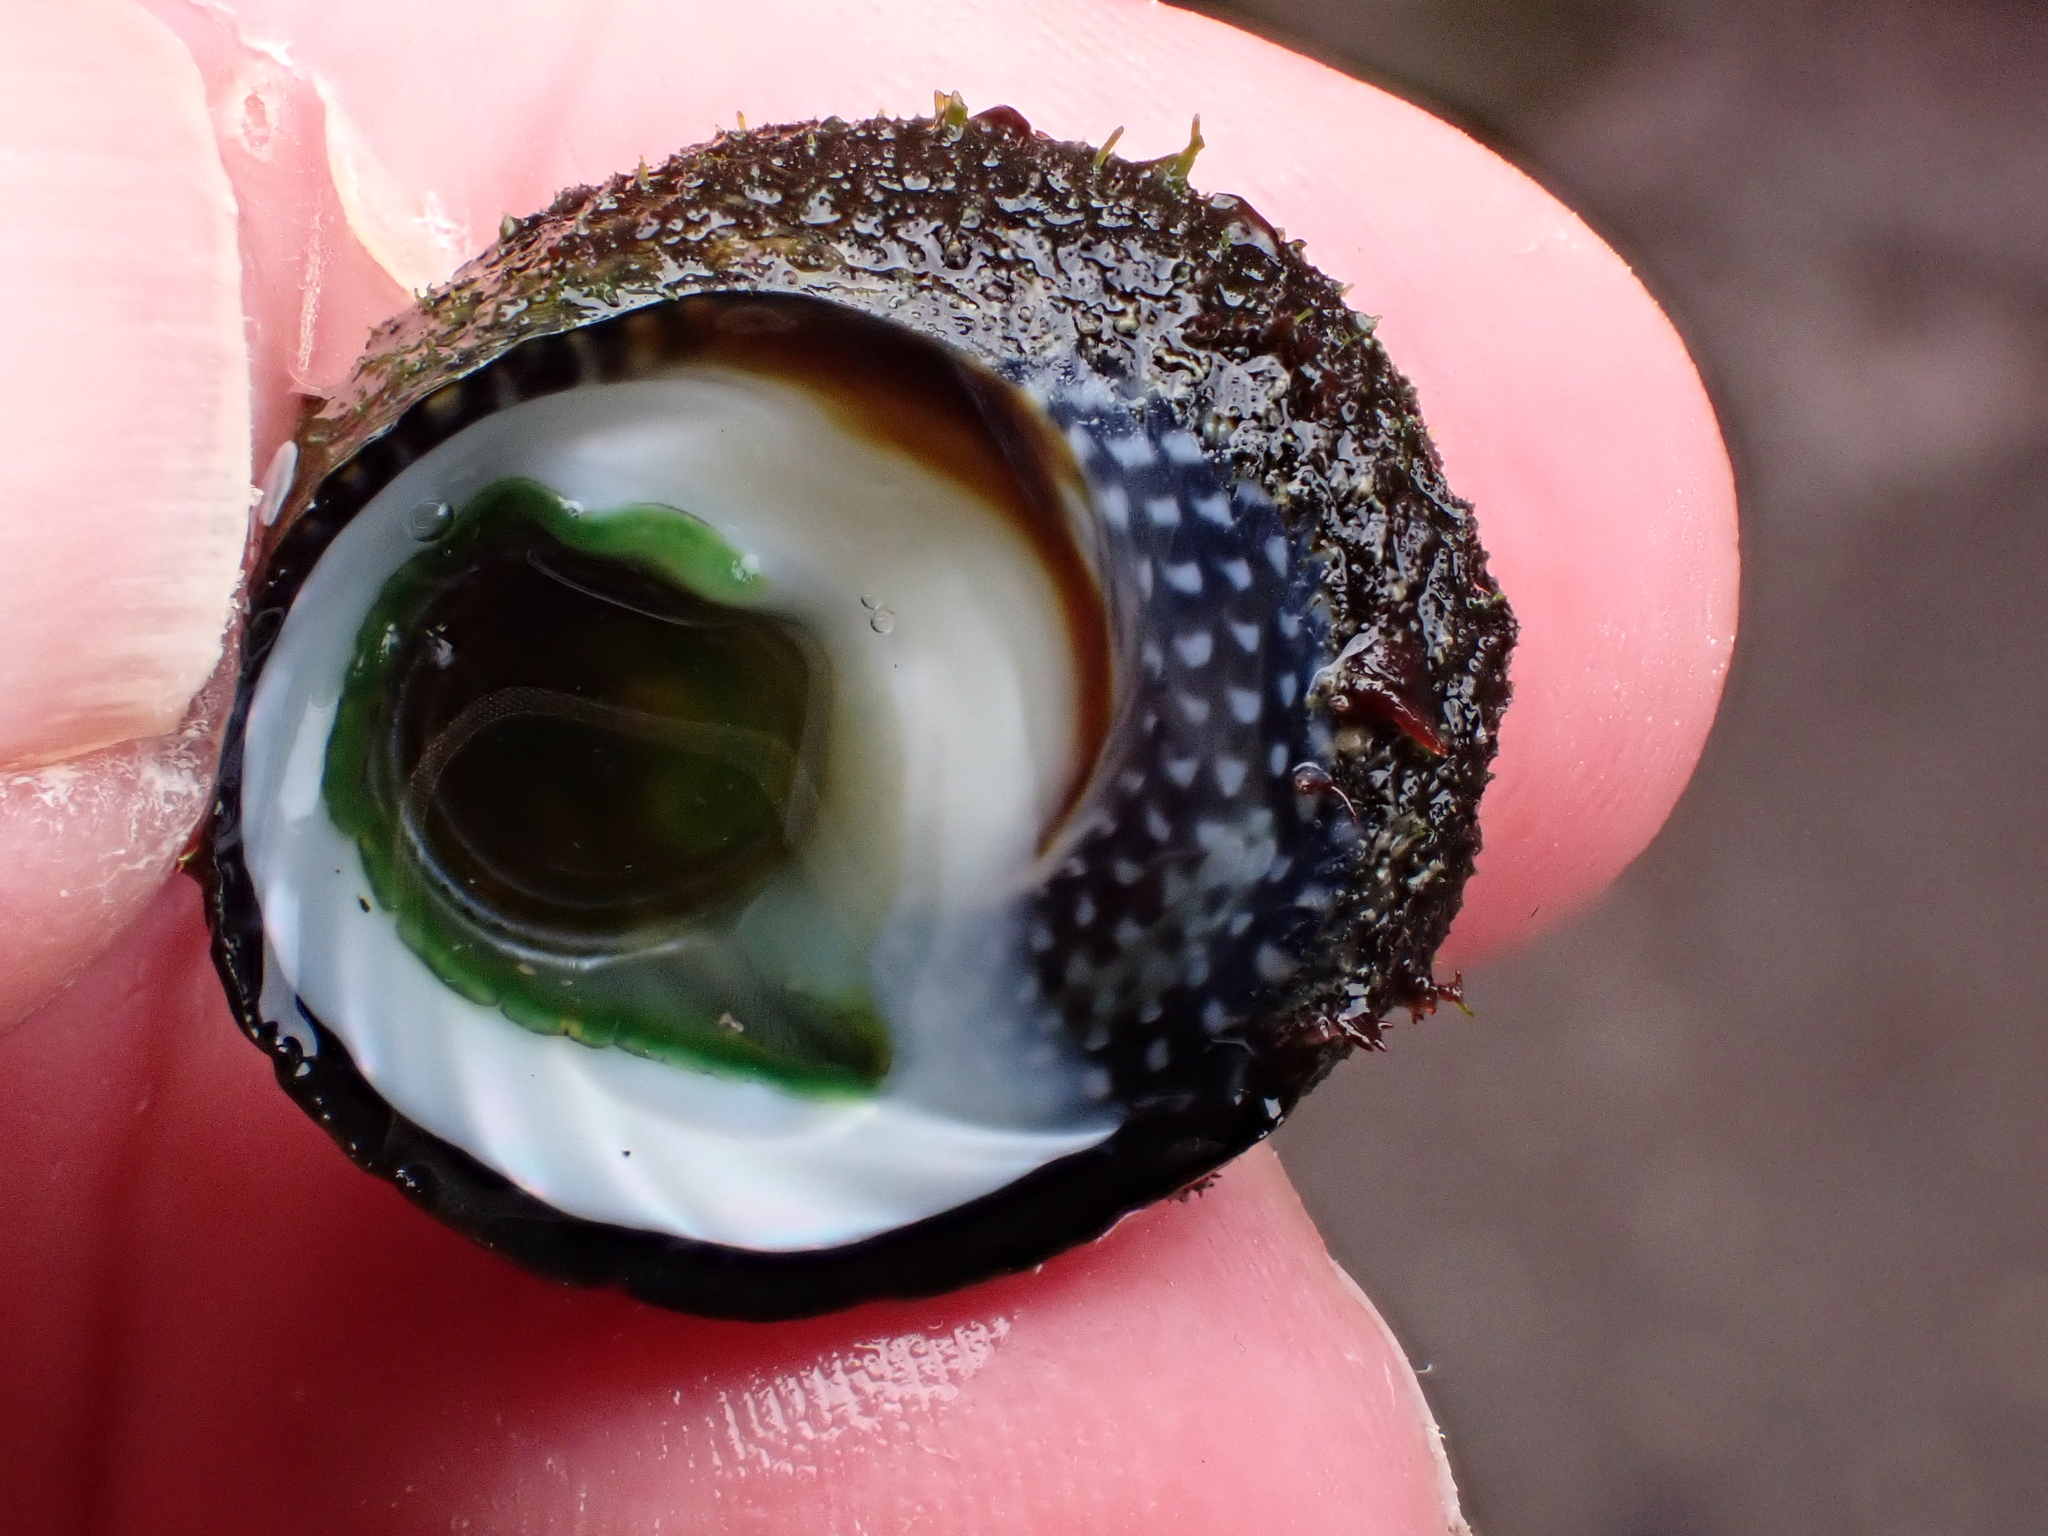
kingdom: Animalia
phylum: Mollusca
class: Gastropoda
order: Trochida
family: Trochidae
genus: Diloma
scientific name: Diloma aethiops
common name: Scorched monodont
